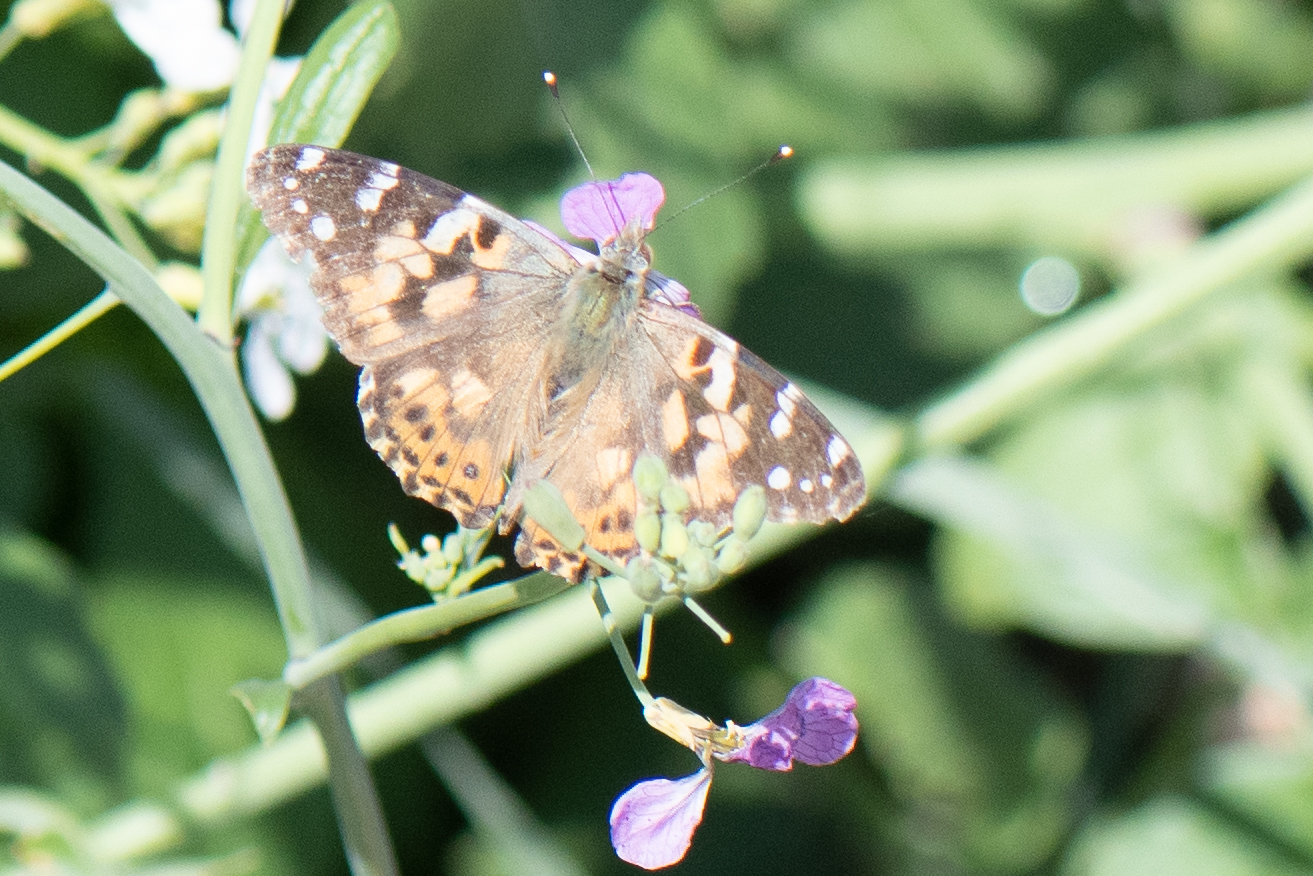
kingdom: Animalia
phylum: Arthropoda
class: Insecta
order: Lepidoptera
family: Nymphalidae
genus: Vanessa
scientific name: Vanessa cardui
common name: Painted lady
